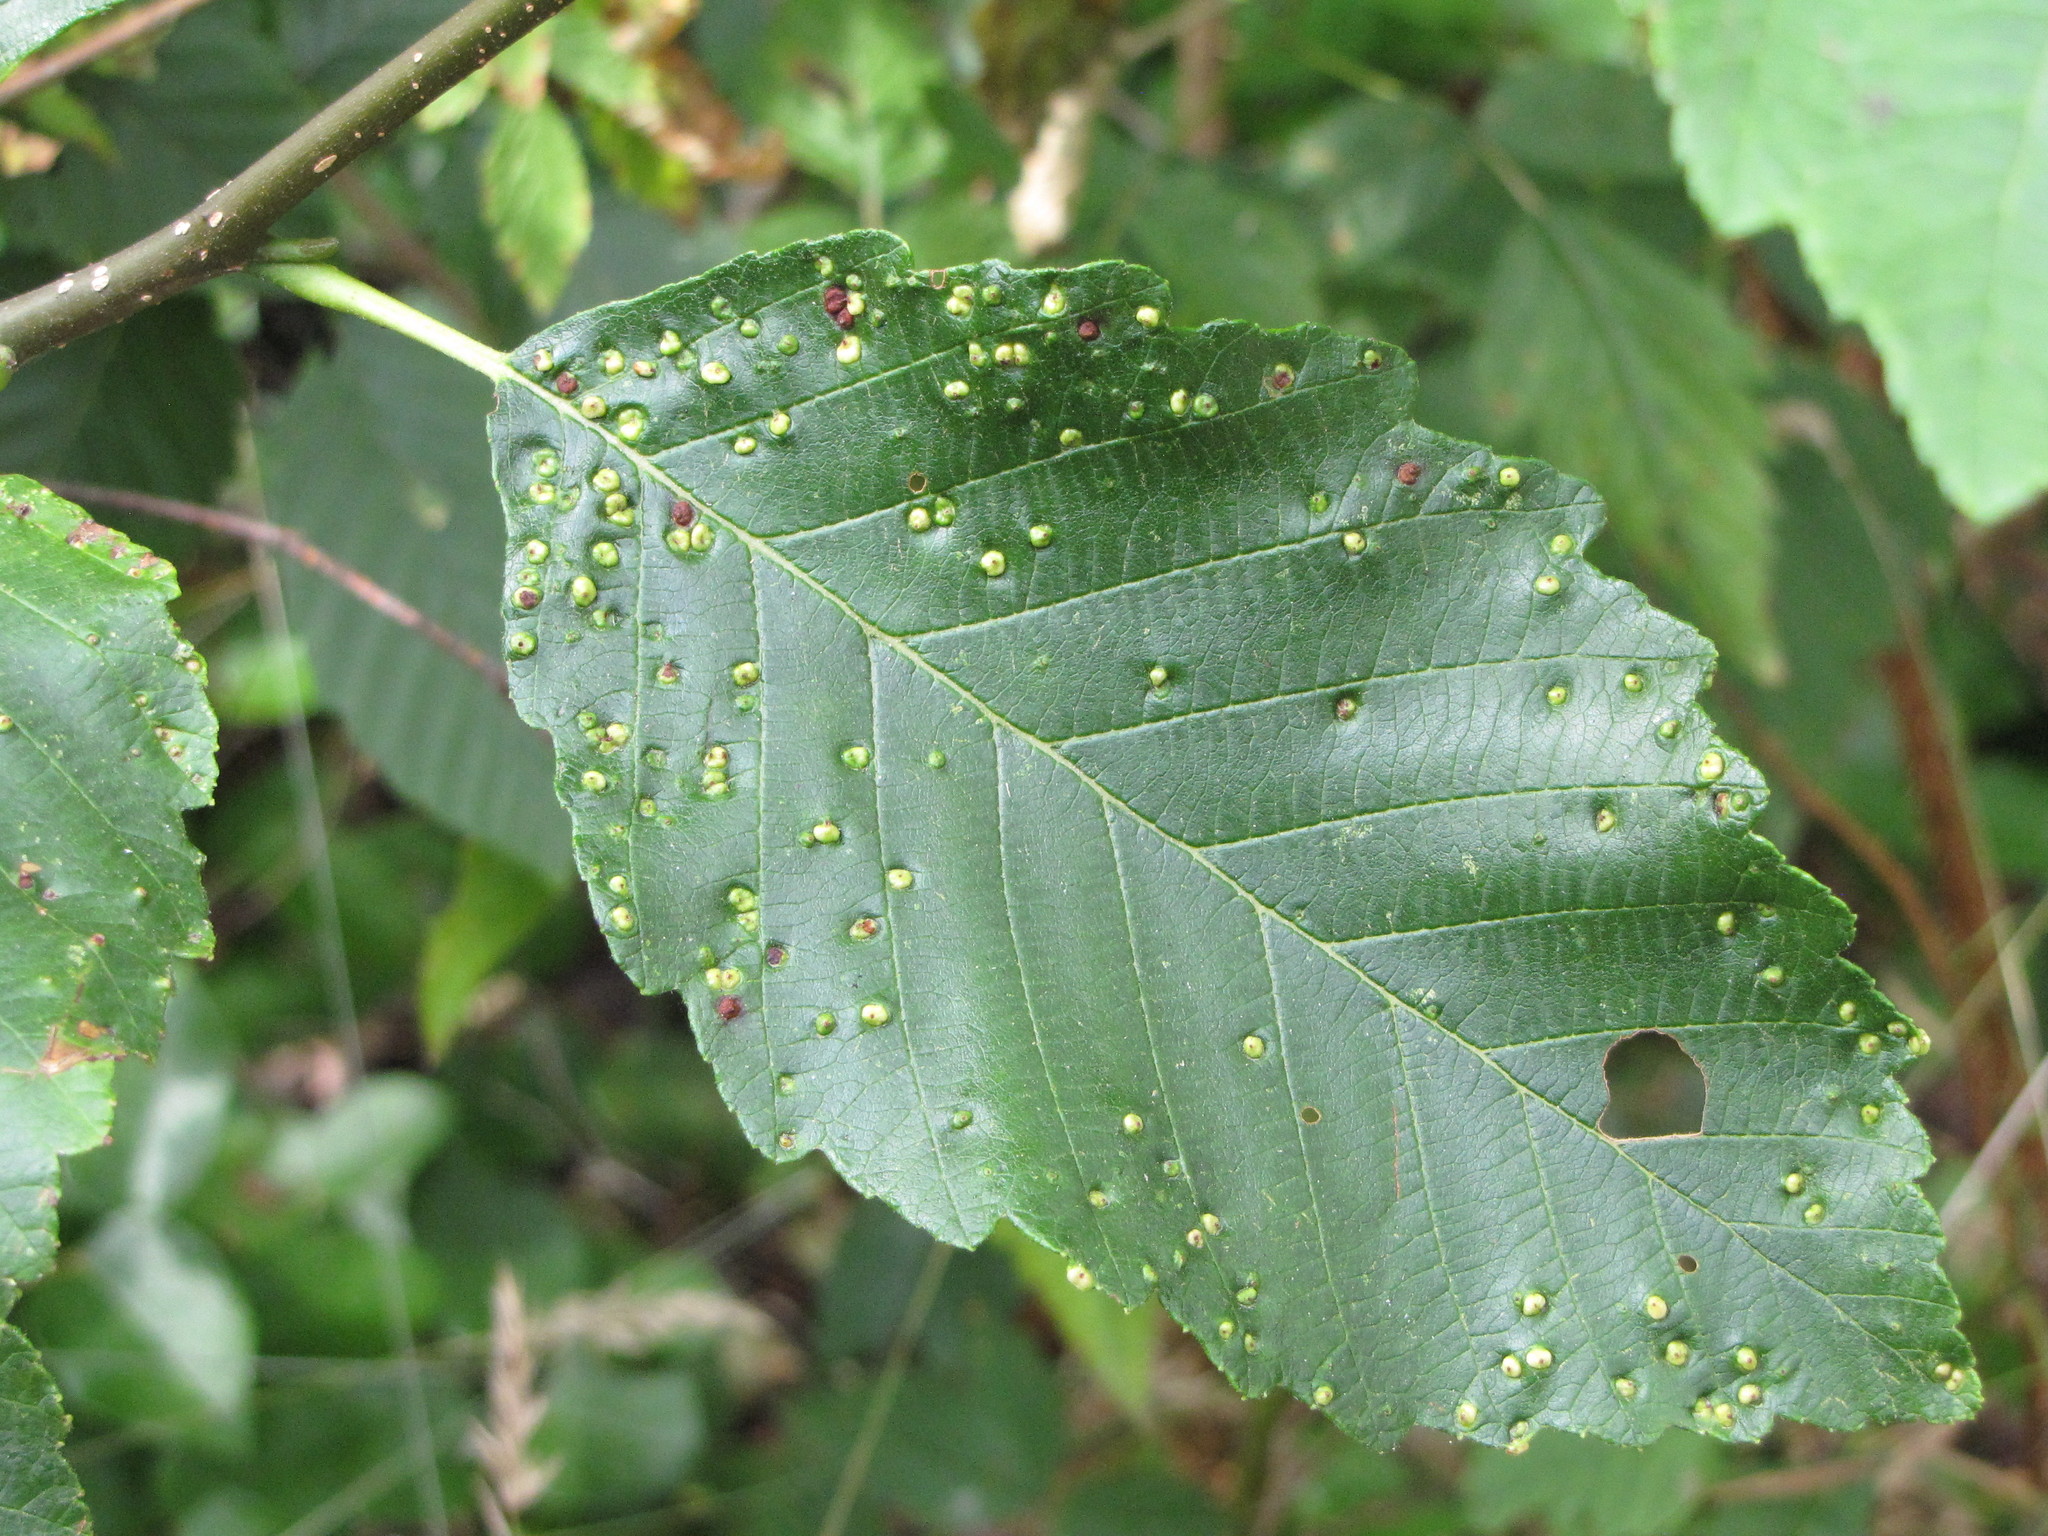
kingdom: Animalia
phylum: Arthropoda
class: Arachnida
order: Trombidiformes
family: Eriophyidae
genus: Eriophyes
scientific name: Eriophyes laevis
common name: Alder leaf gall mite
